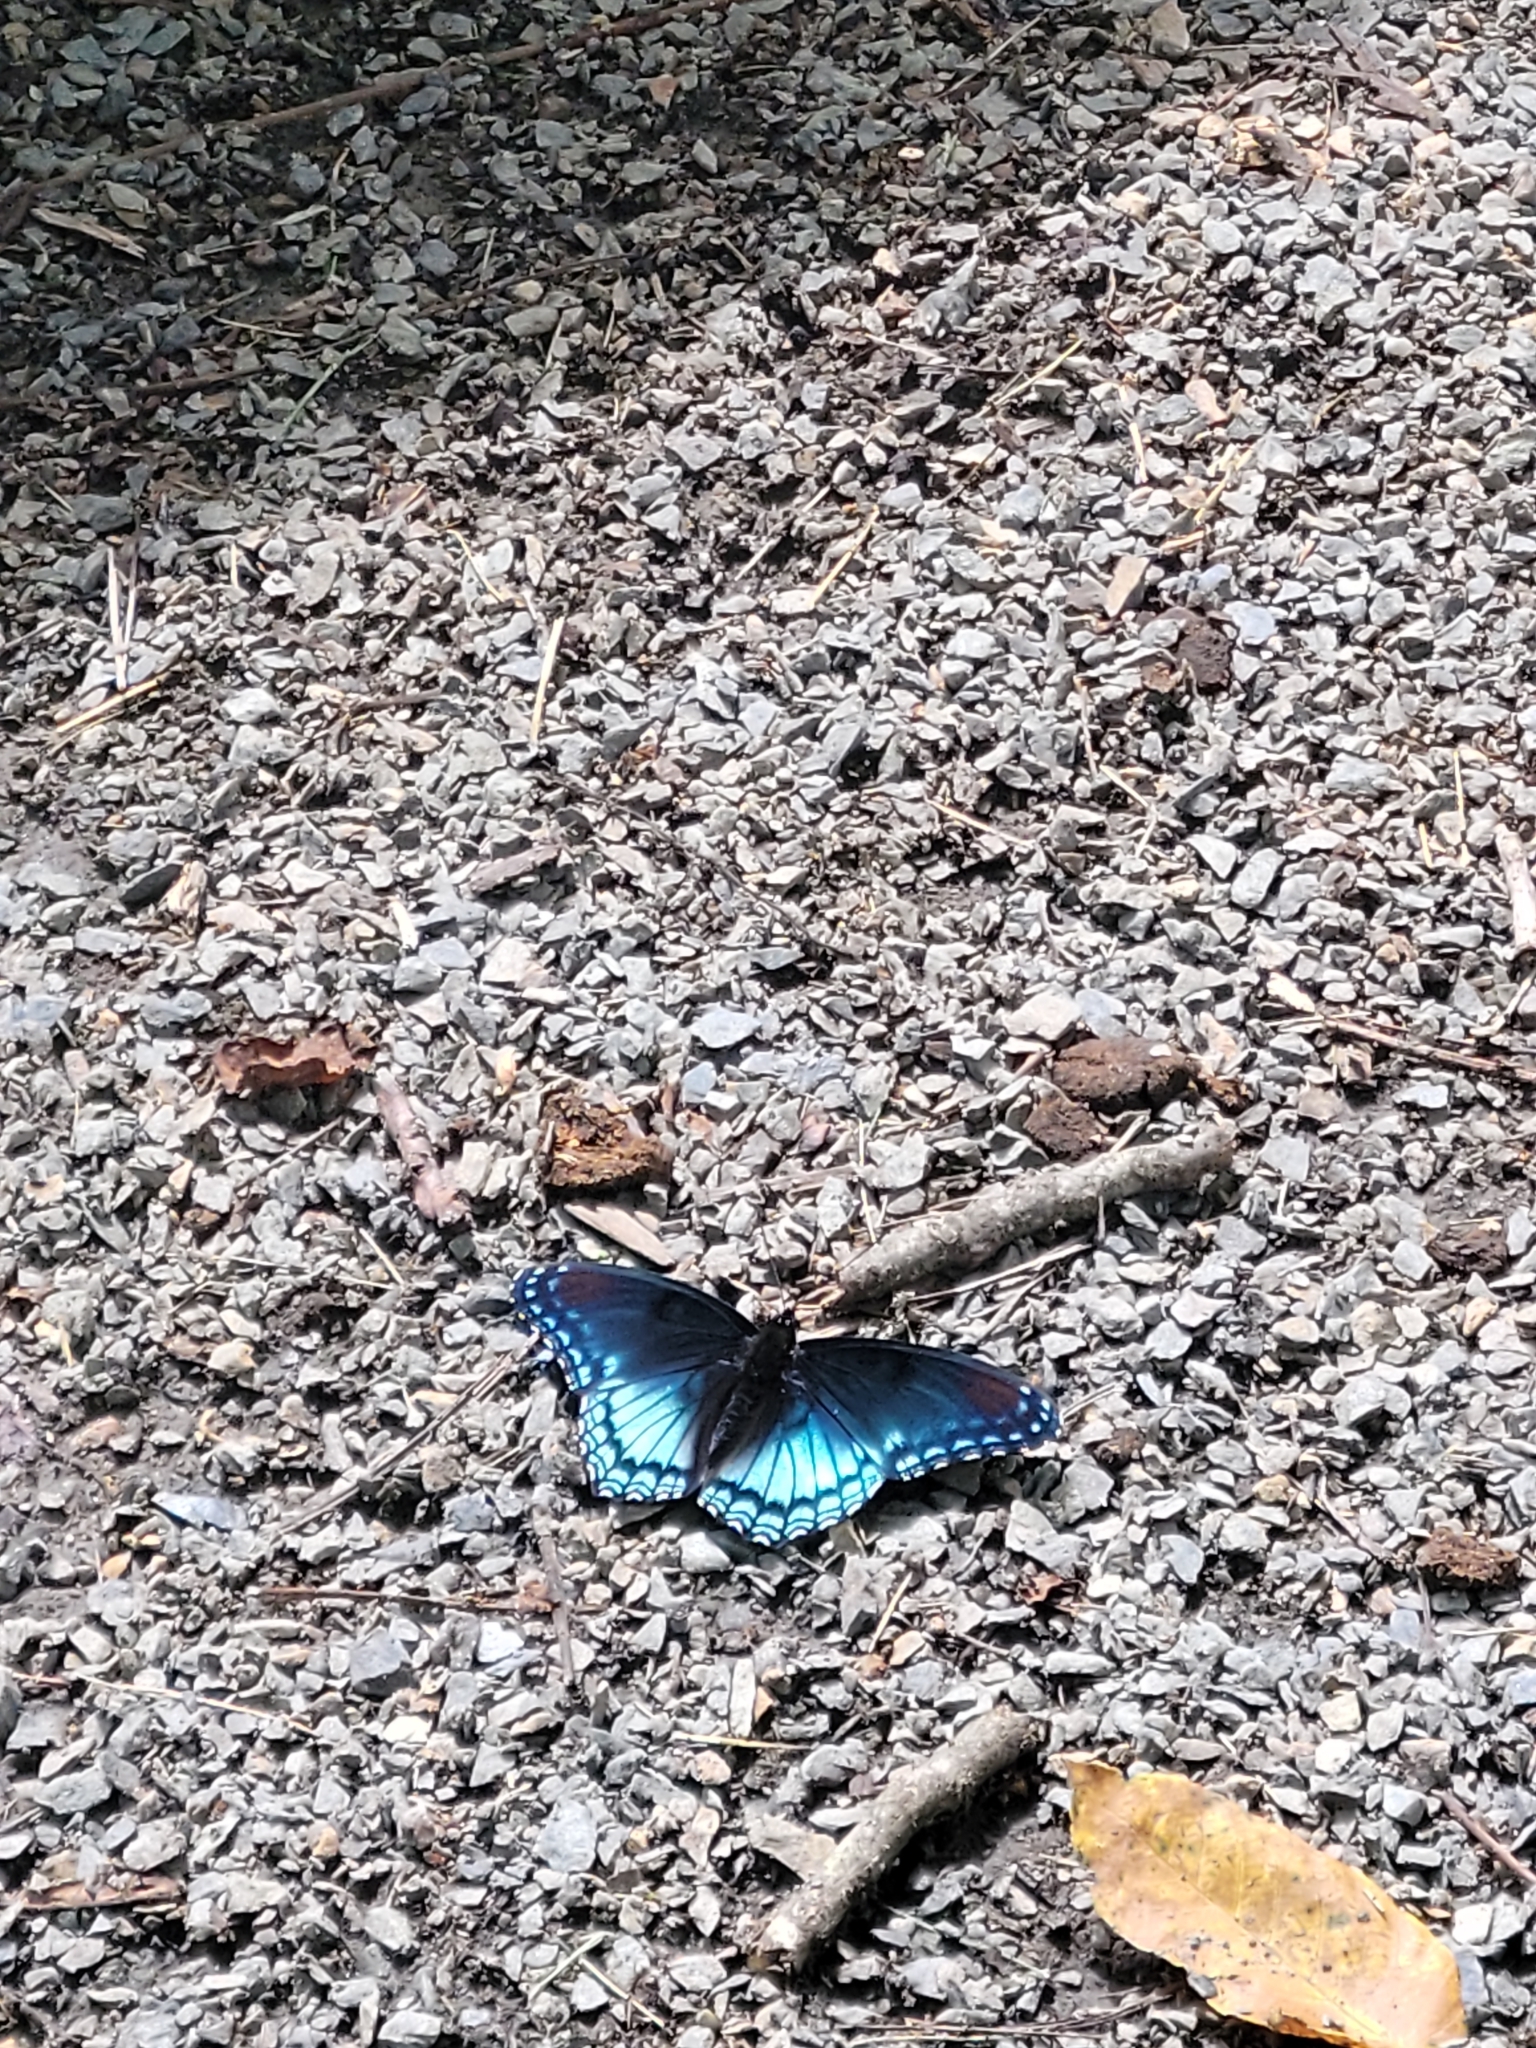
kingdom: Animalia
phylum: Arthropoda
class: Insecta
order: Lepidoptera
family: Nymphalidae
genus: Limenitis
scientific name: Limenitis arthemis
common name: Red-spotted admiral
